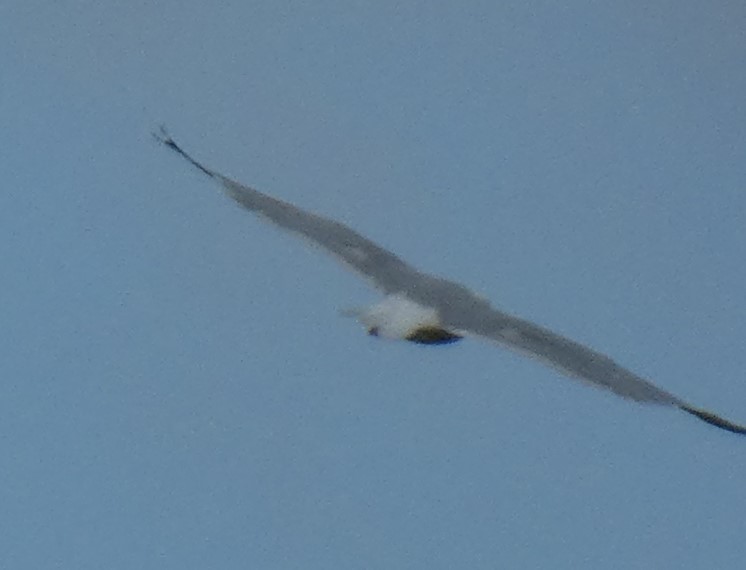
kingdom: Animalia
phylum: Chordata
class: Aves
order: Charadriiformes
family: Laridae
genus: Larus
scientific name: Larus argentatus
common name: Herring gull
